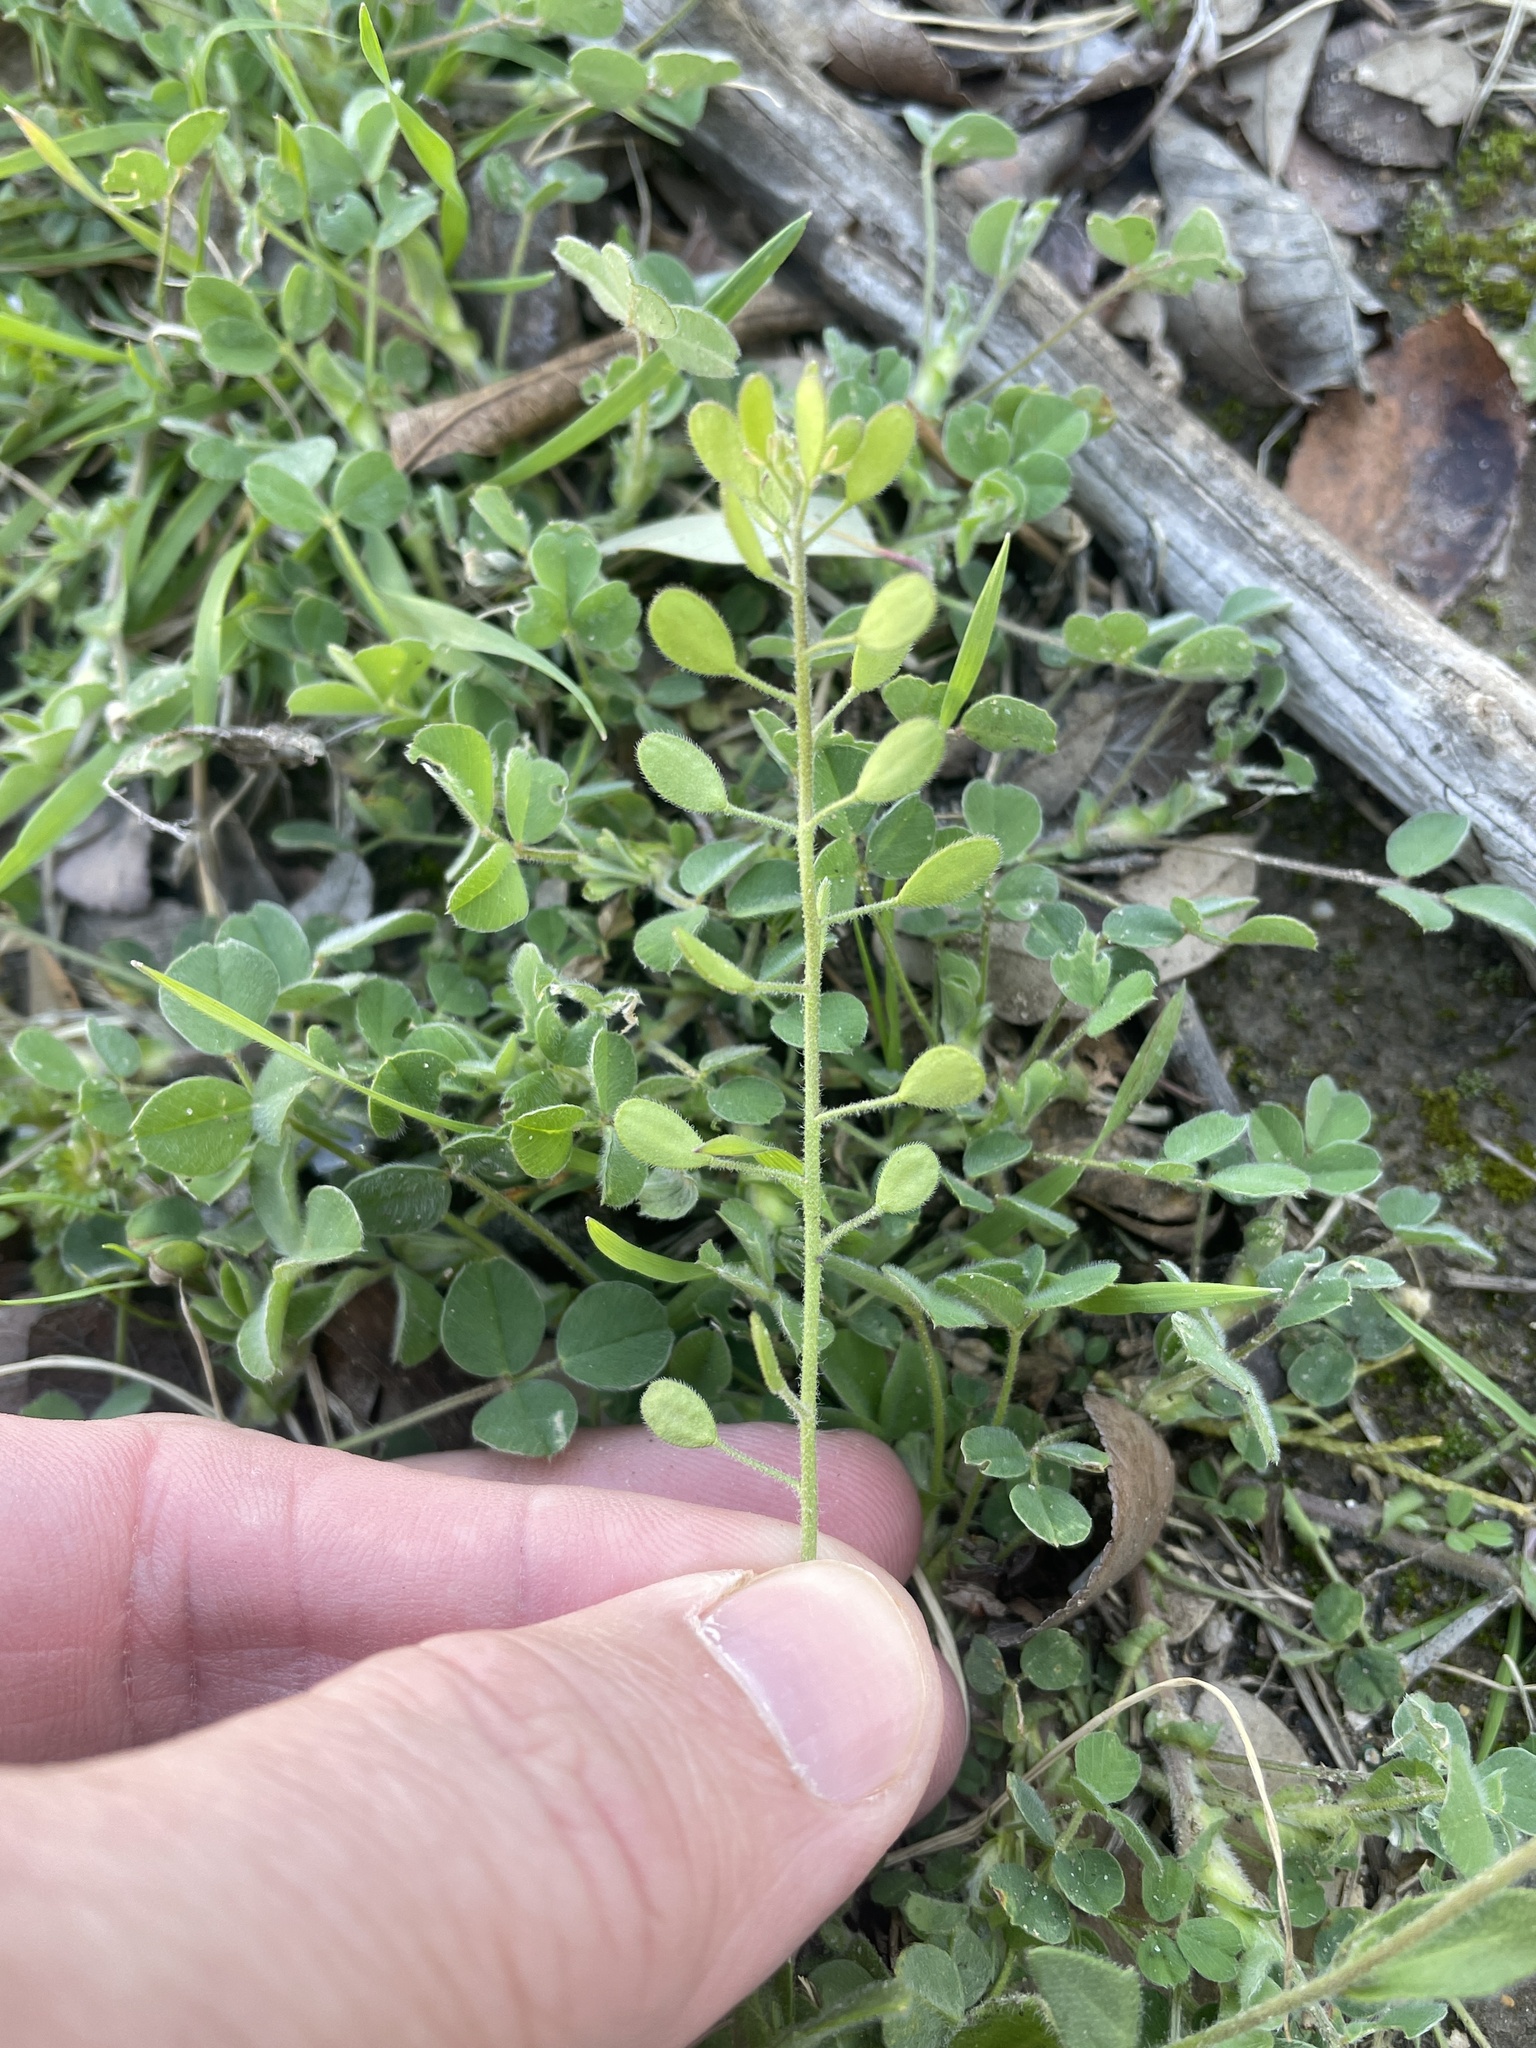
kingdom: Plantae
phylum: Tracheophyta
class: Magnoliopsida
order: Brassicales
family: Brassicaceae
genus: Tomostima
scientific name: Tomostima platycarpa
